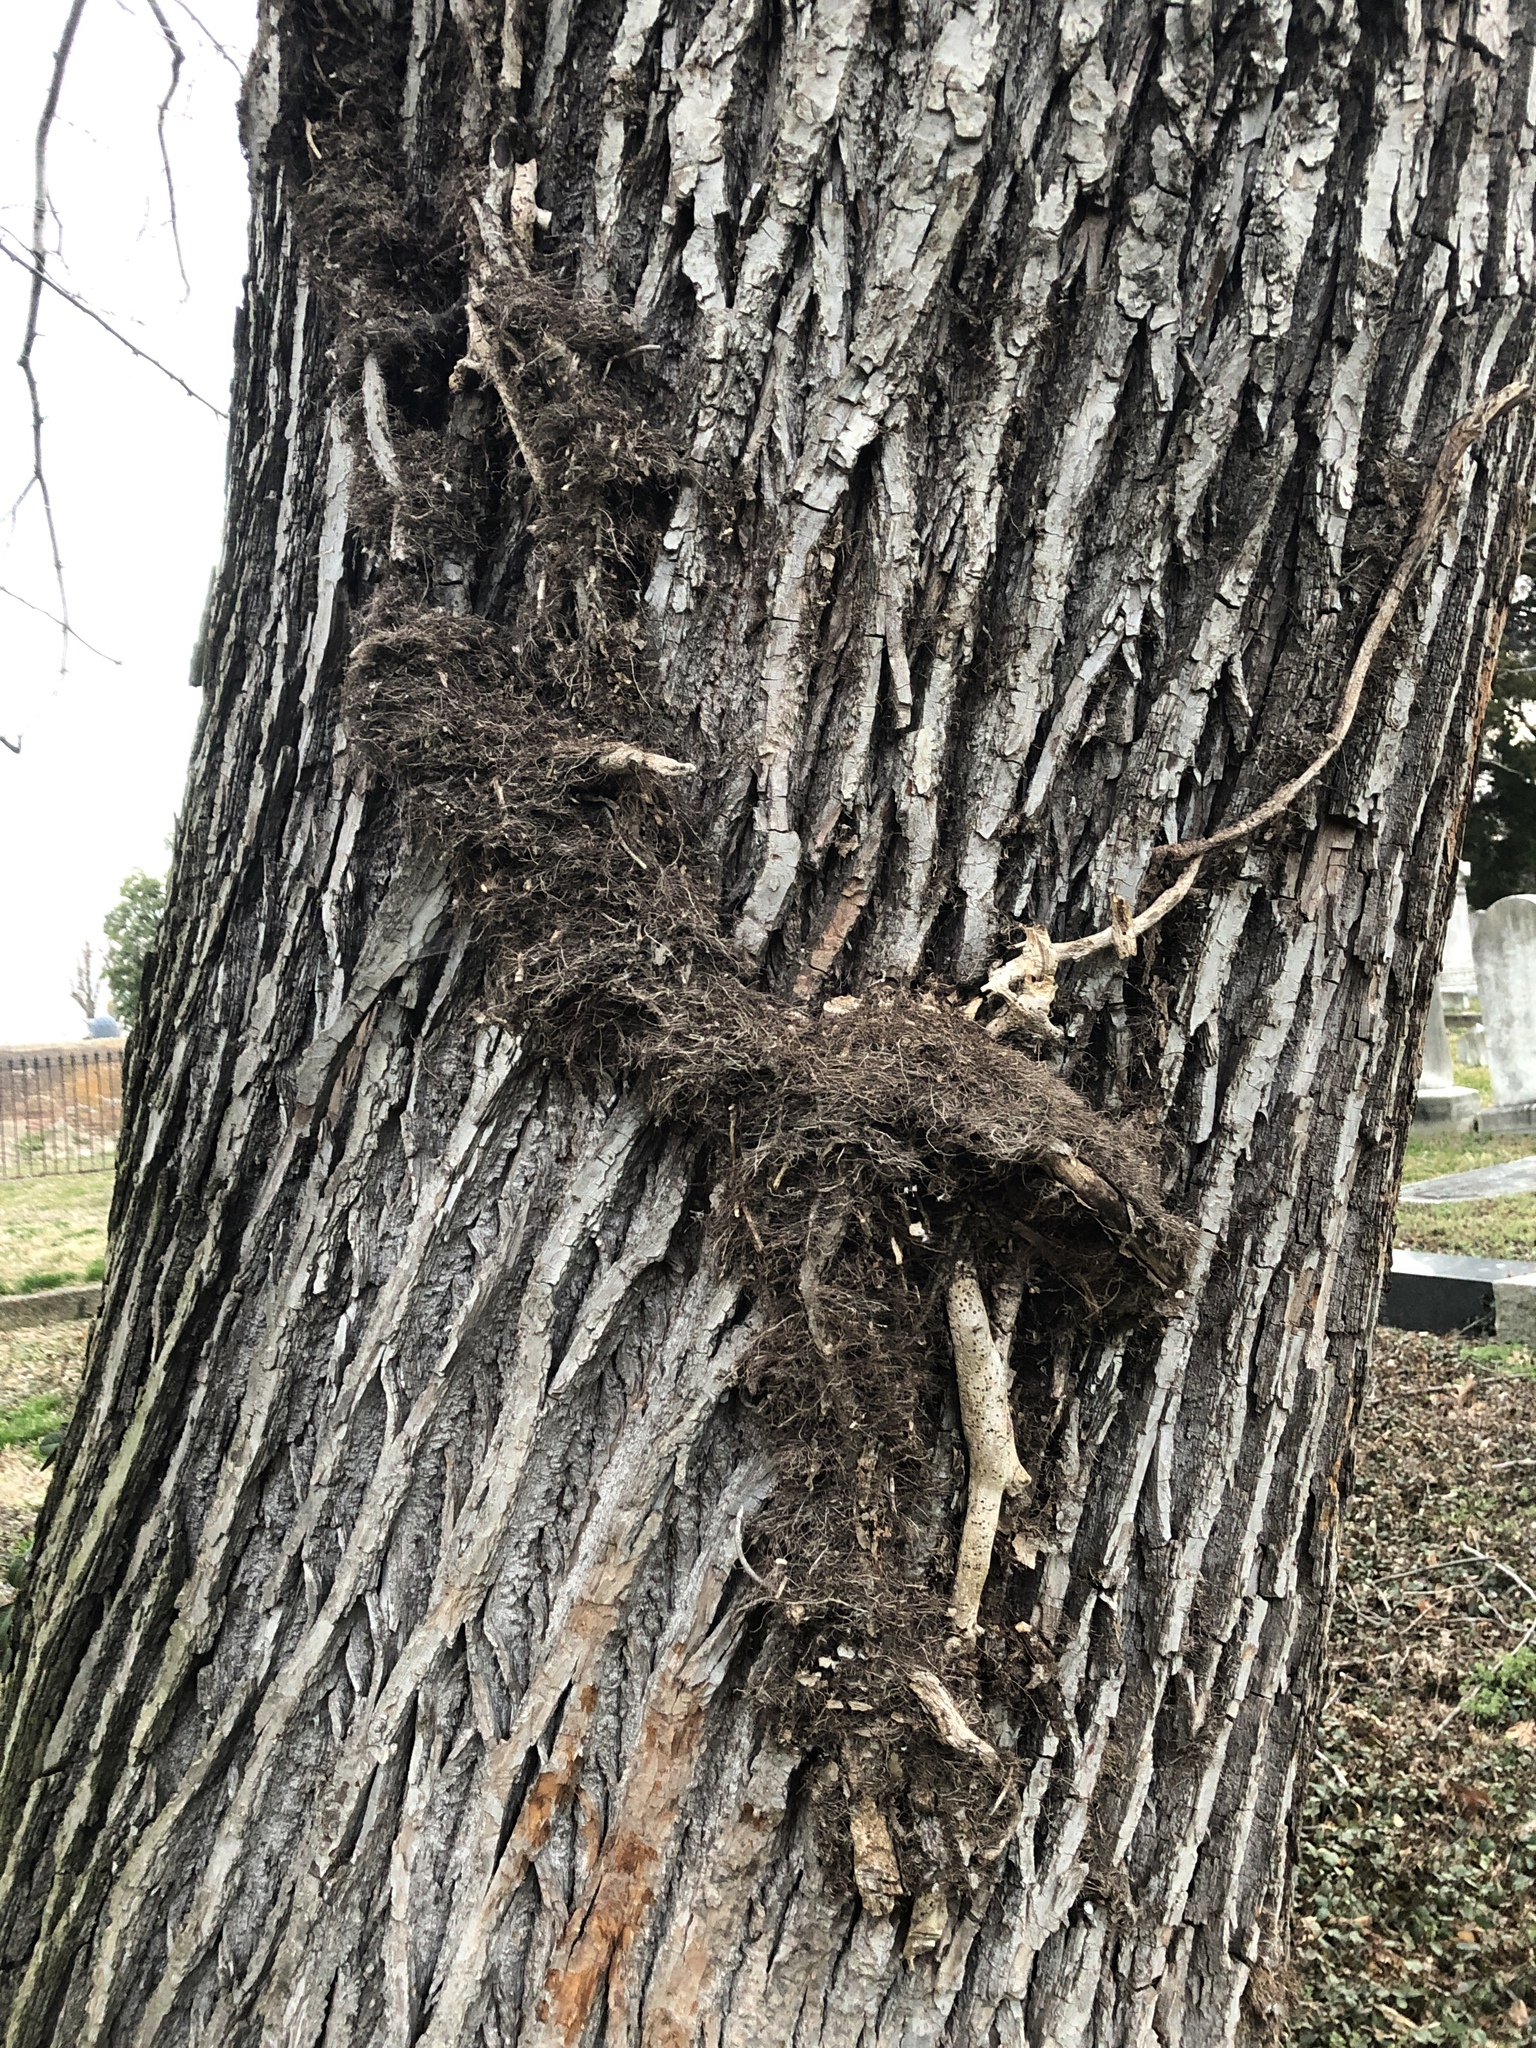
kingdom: Plantae
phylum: Tracheophyta
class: Magnoliopsida
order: Sapindales
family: Anacardiaceae
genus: Toxicodendron
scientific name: Toxicodendron radicans
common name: Poison ivy
